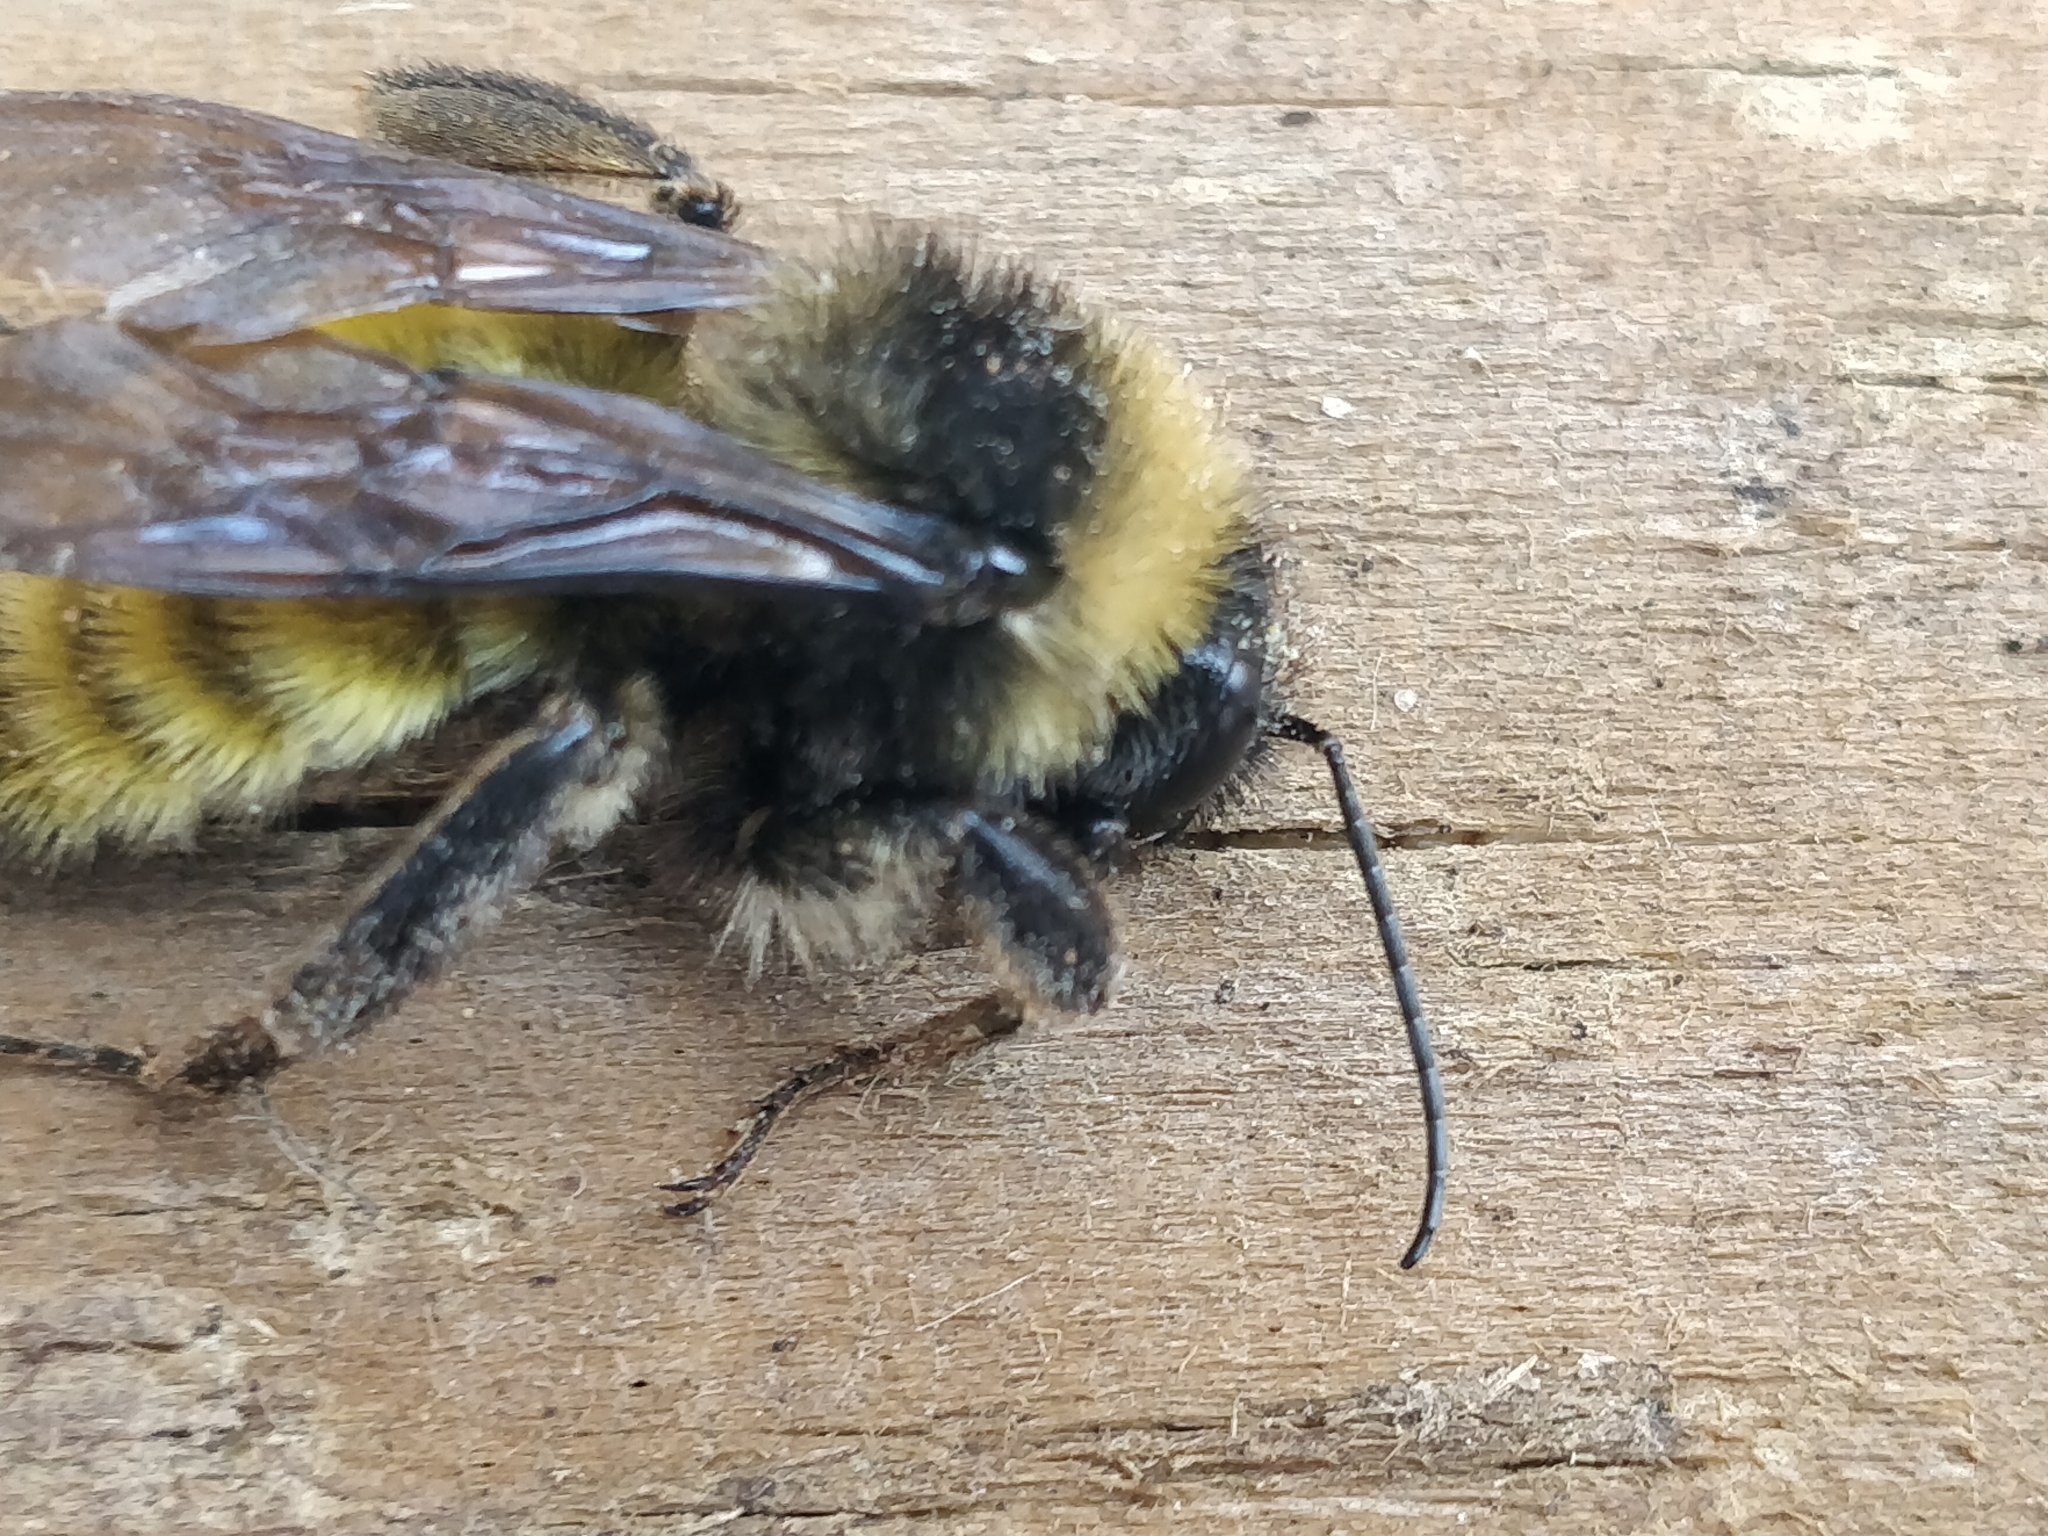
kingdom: Animalia
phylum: Arthropoda
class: Insecta
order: Hymenoptera
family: Apidae
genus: Bombus
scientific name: Bombus pensylvanicus
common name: Bumble bee
